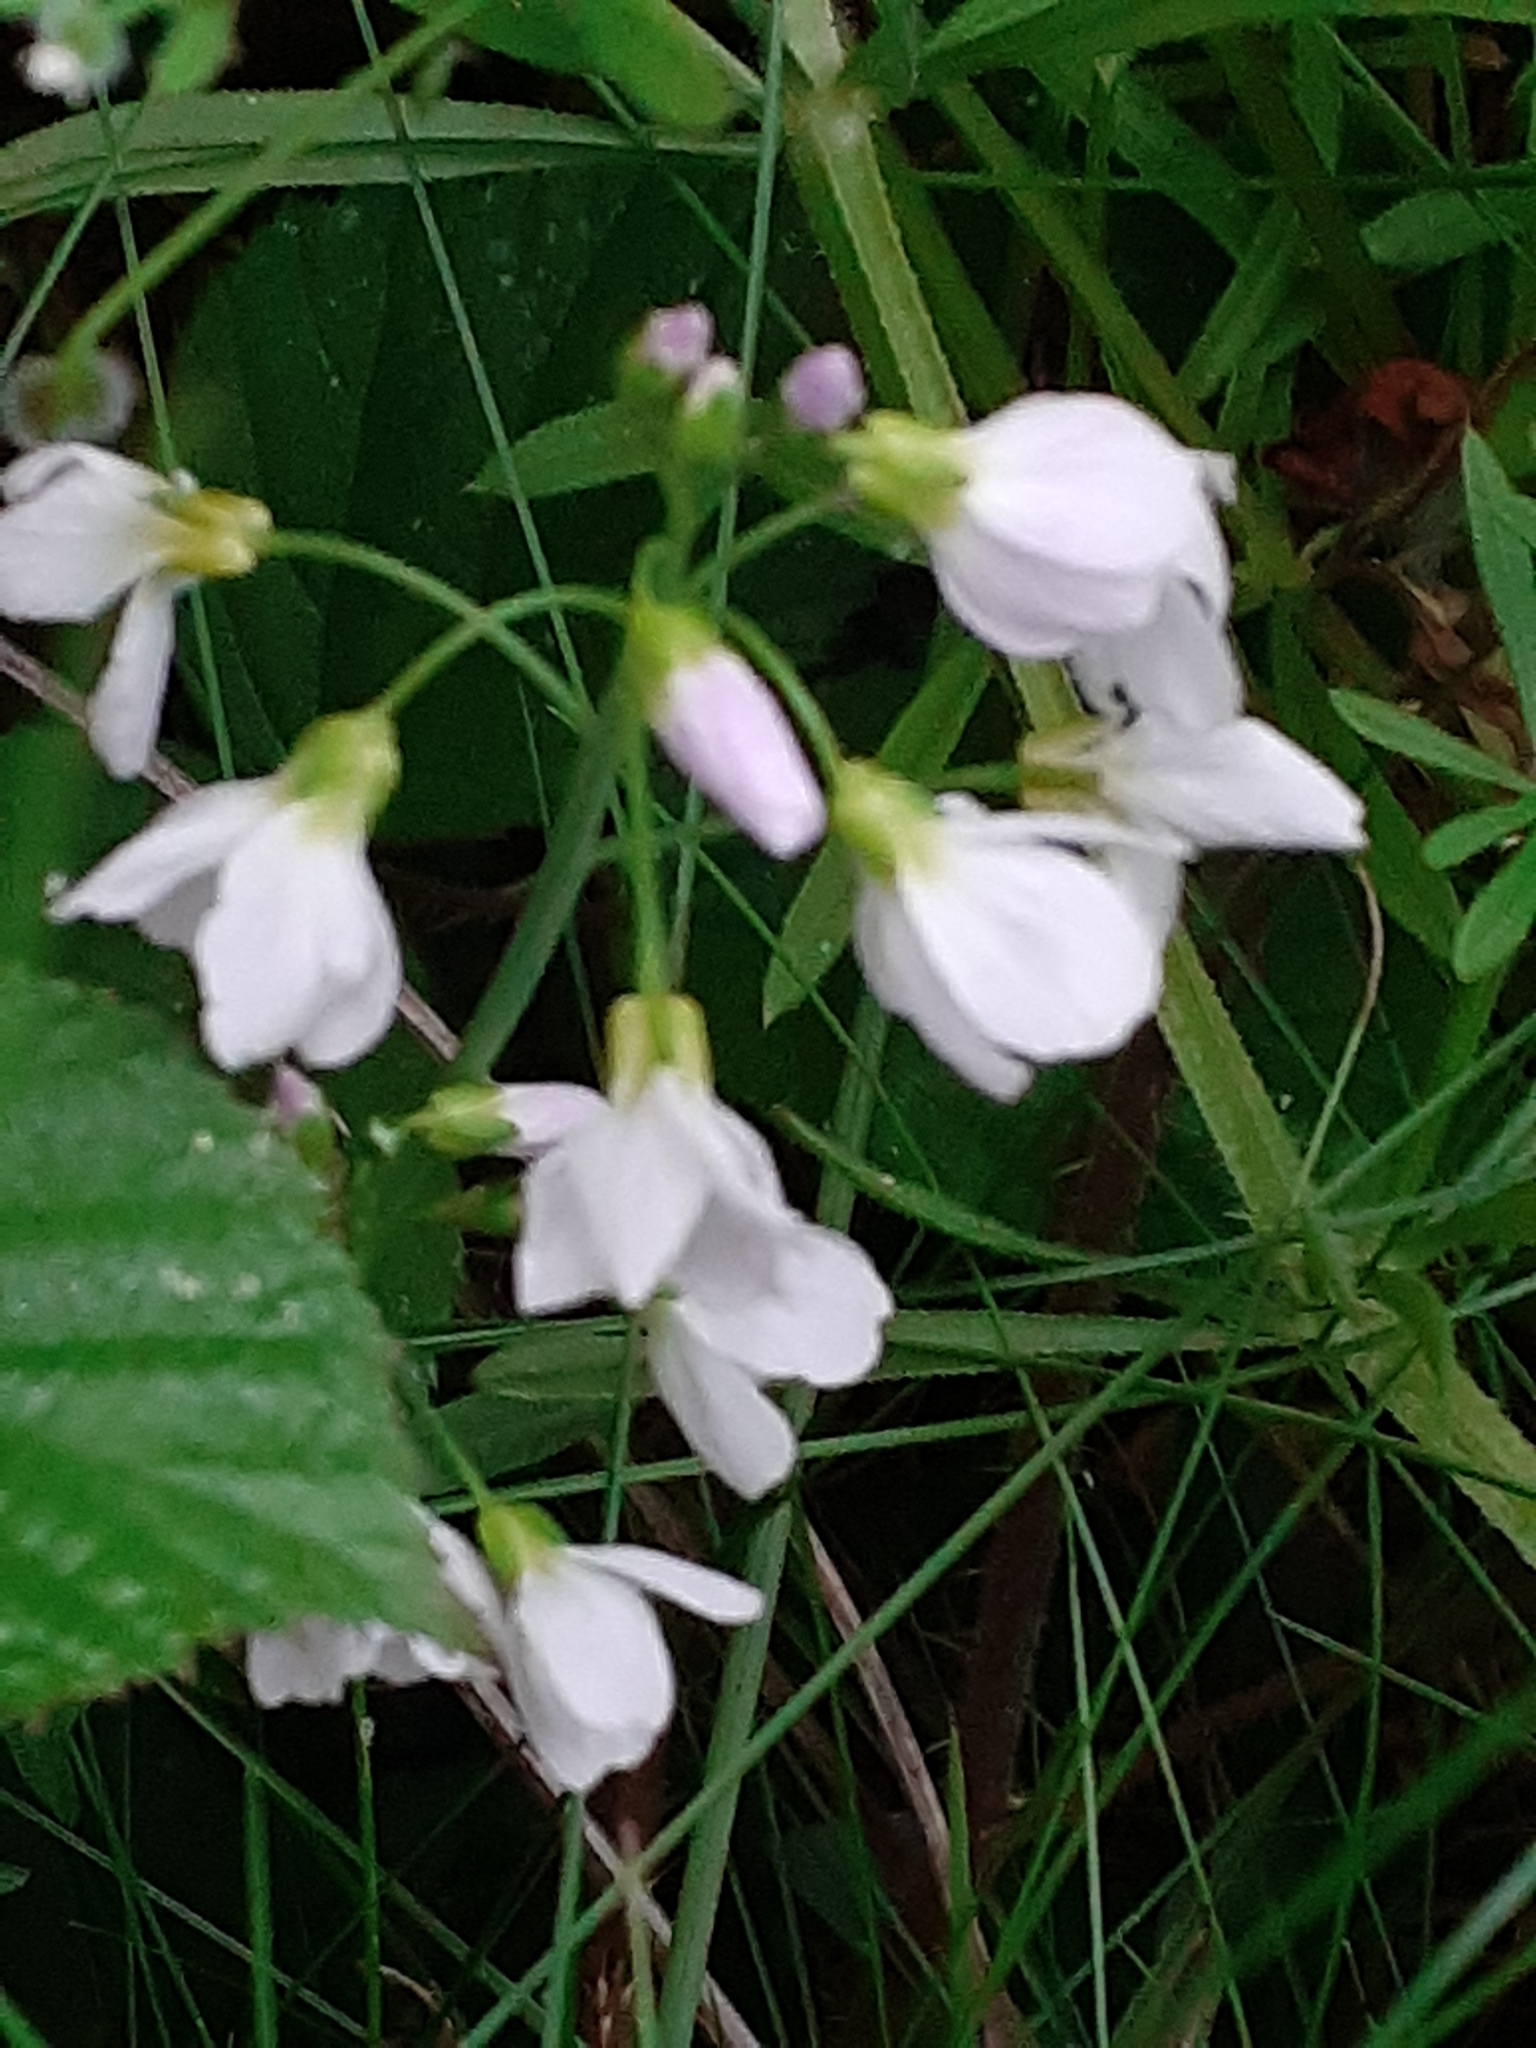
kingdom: Plantae
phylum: Tracheophyta
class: Magnoliopsida
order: Brassicales
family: Brassicaceae
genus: Cardamine
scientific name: Cardamine pratensis
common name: Cuckoo flower
